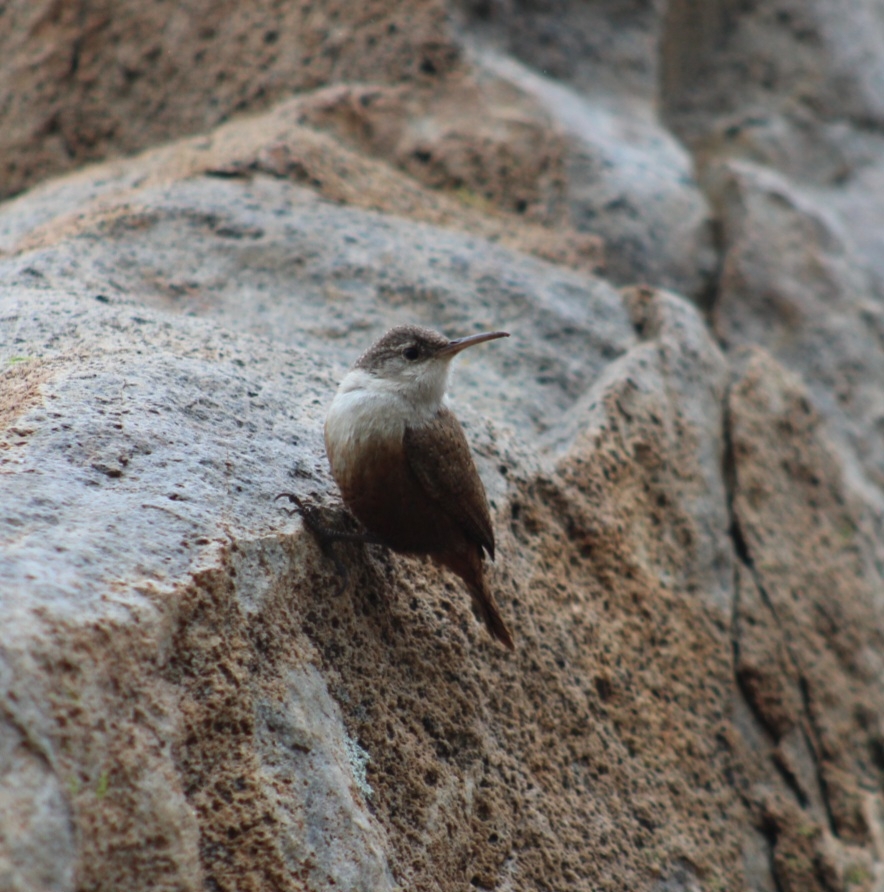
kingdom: Animalia
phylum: Chordata
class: Aves
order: Passeriformes
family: Troglodytidae
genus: Catherpes
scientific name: Catherpes mexicanus
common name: Canyon wren
